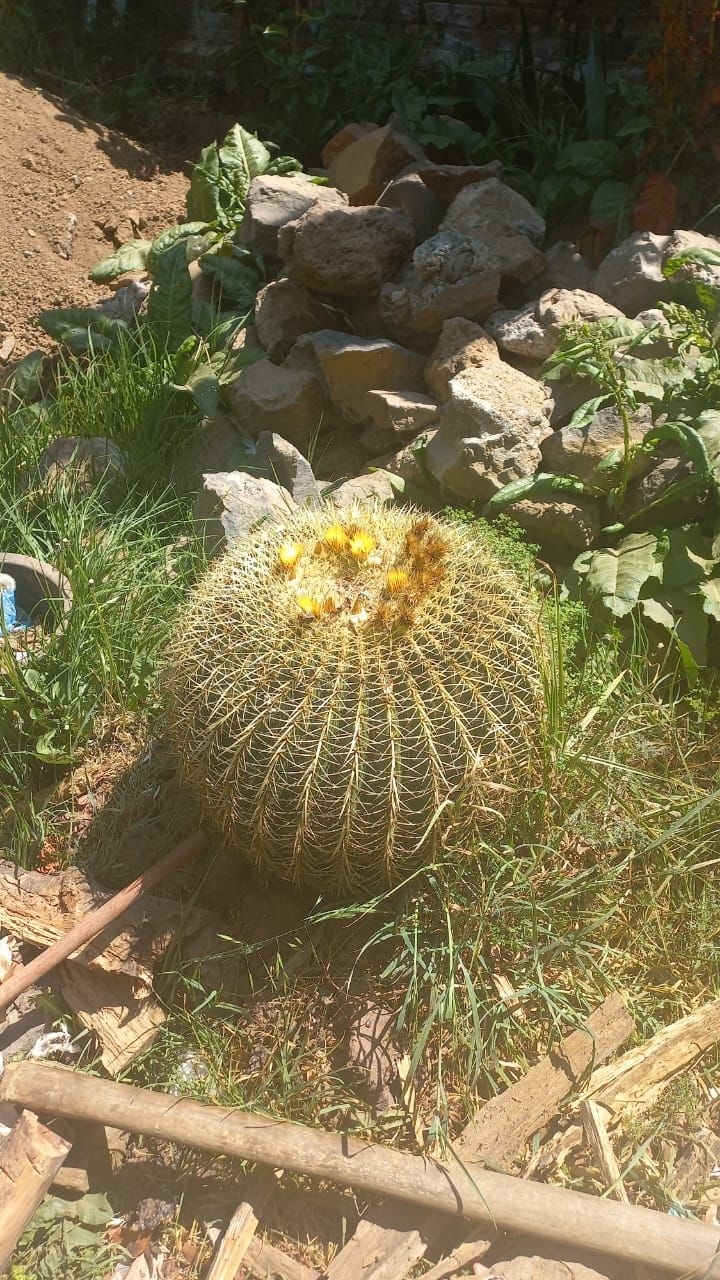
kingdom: Plantae
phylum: Tracheophyta
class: Magnoliopsida
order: Caryophyllales
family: Cactaceae
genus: Bisnaga
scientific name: Bisnaga histrix
